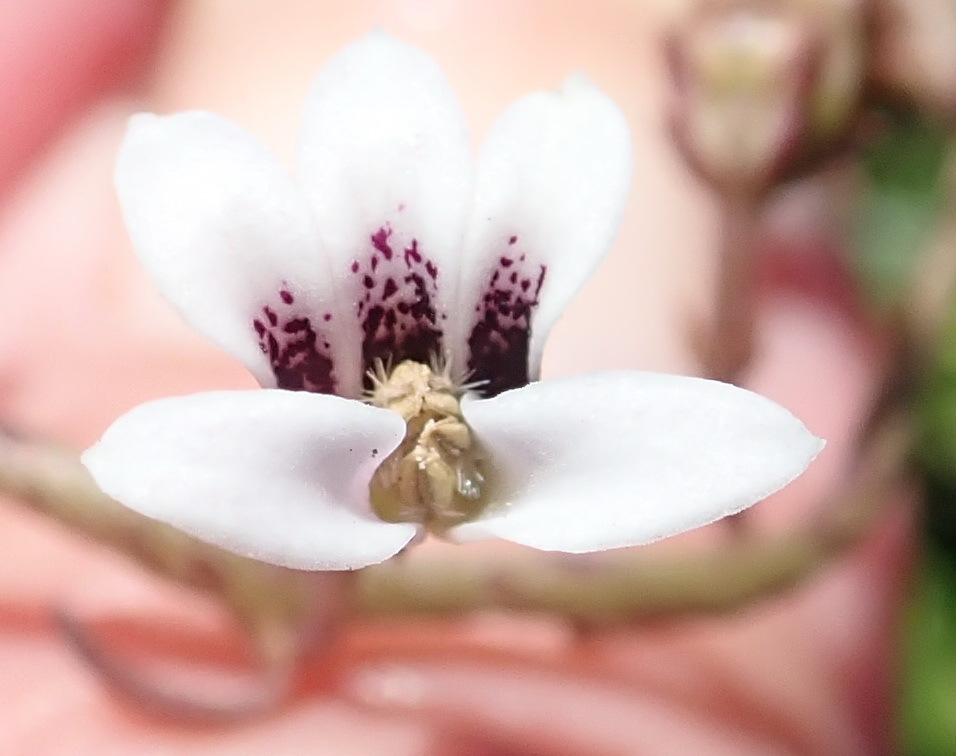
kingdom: Plantae
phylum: Tracheophyta
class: Magnoliopsida
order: Asterales
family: Campanulaceae
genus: Cyphia
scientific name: Cyphia digitata
